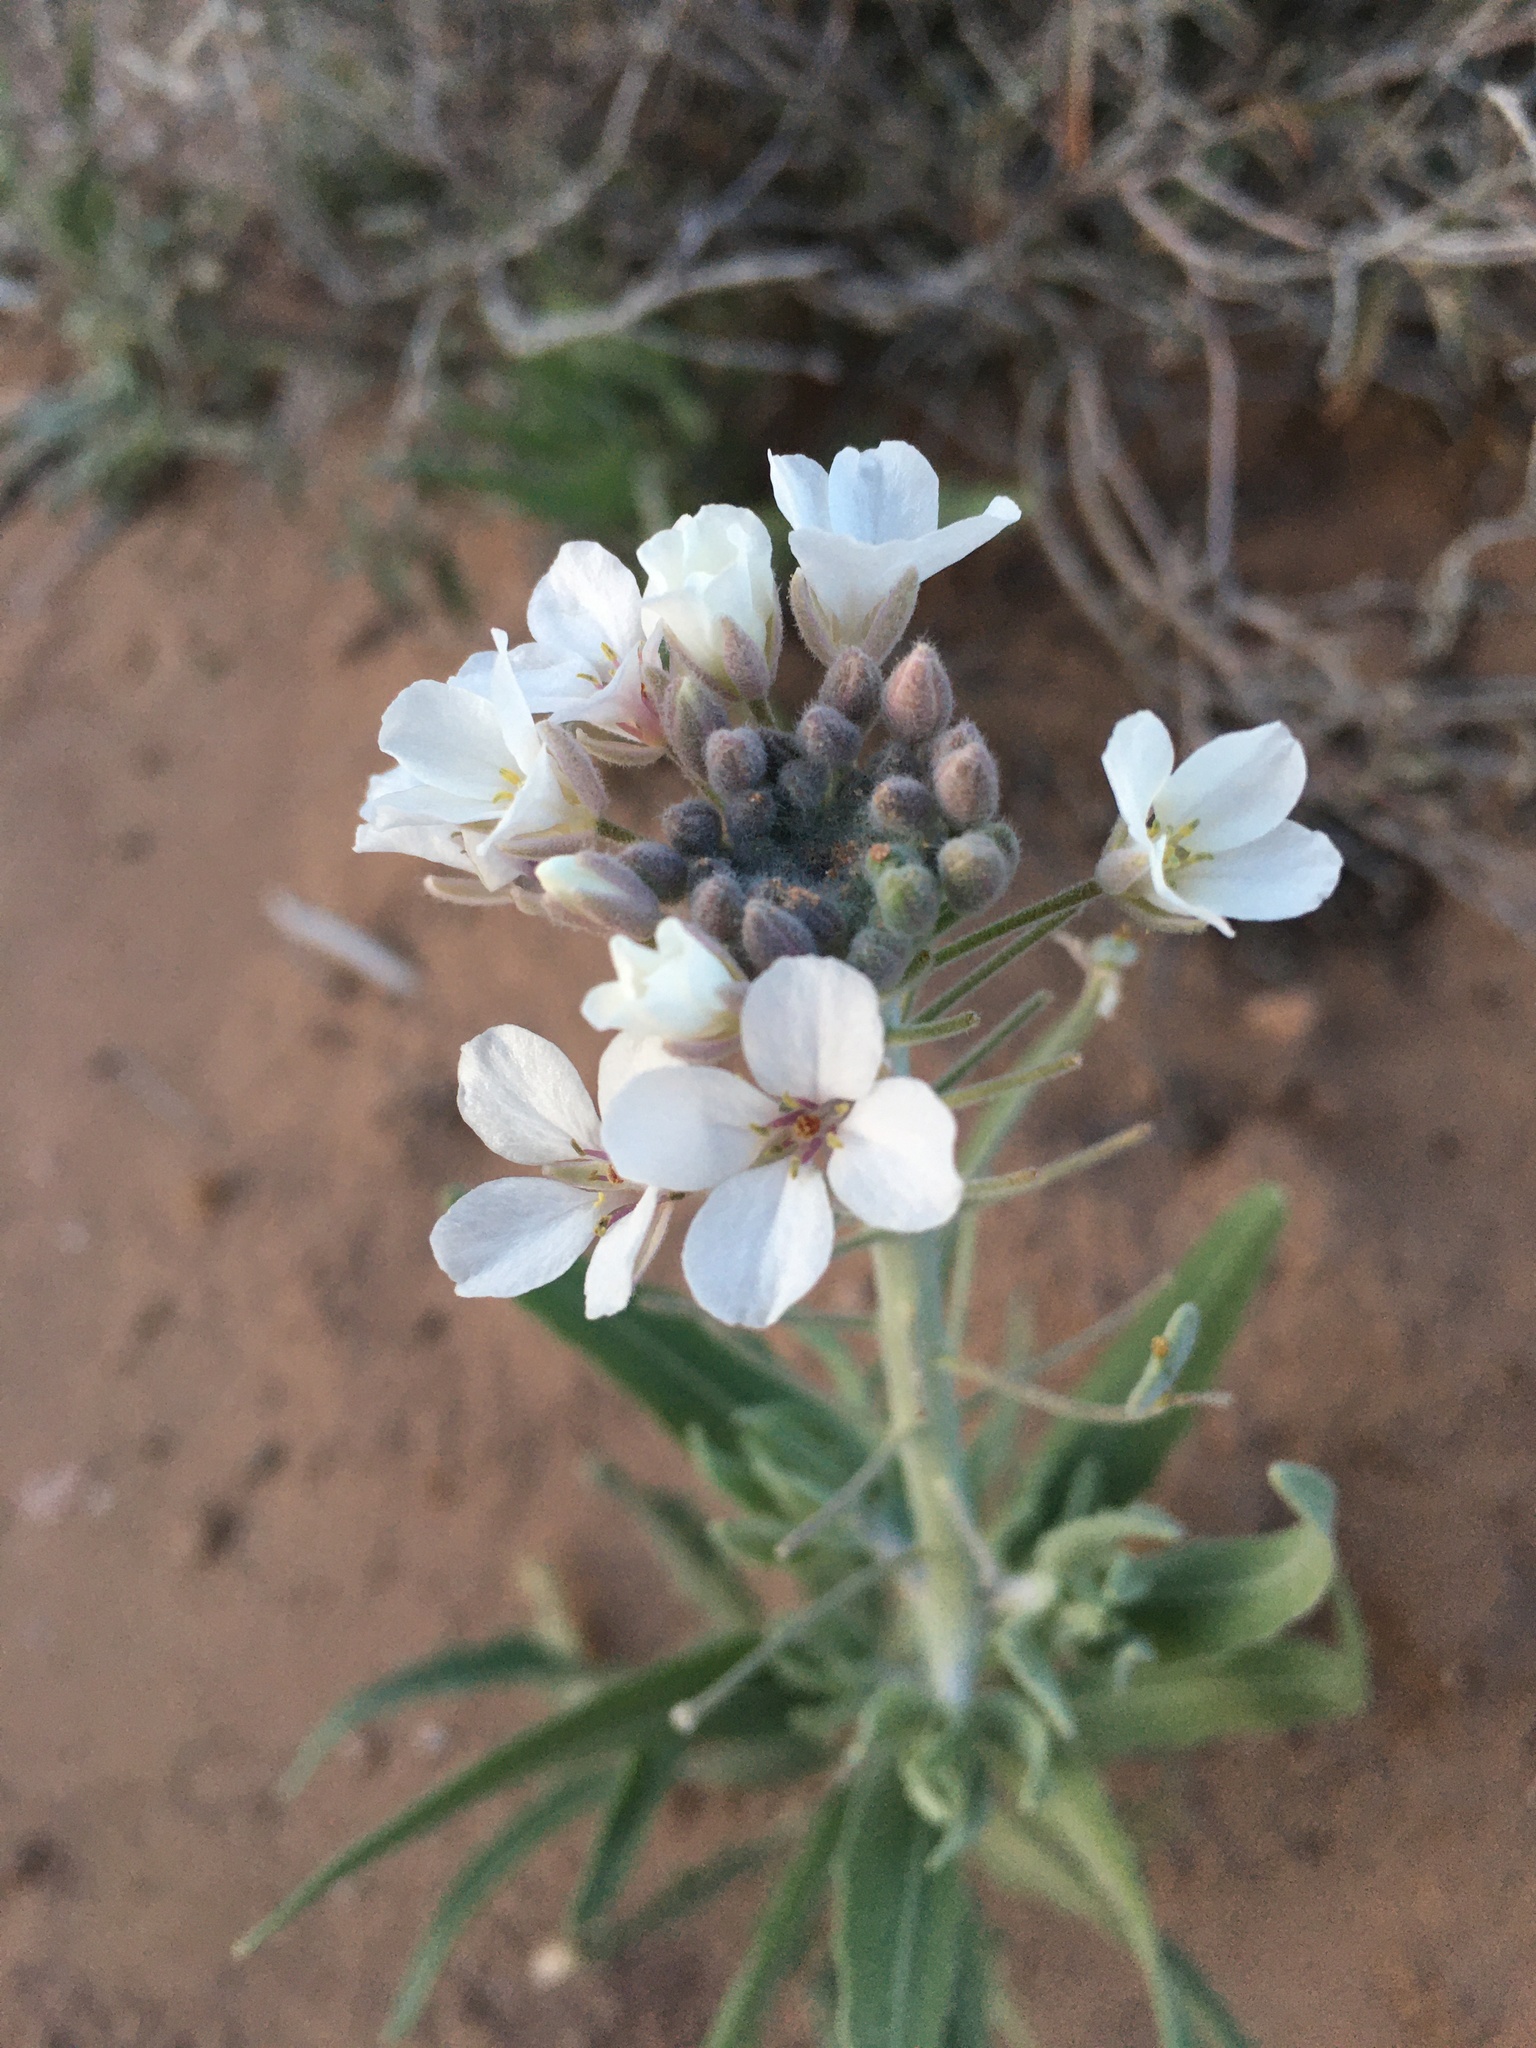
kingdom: Plantae
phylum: Tracheophyta
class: Magnoliopsida
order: Brassicales
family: Brassicaceae
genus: Dimorphocarpa
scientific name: Dimorphocarpa wislizenii
